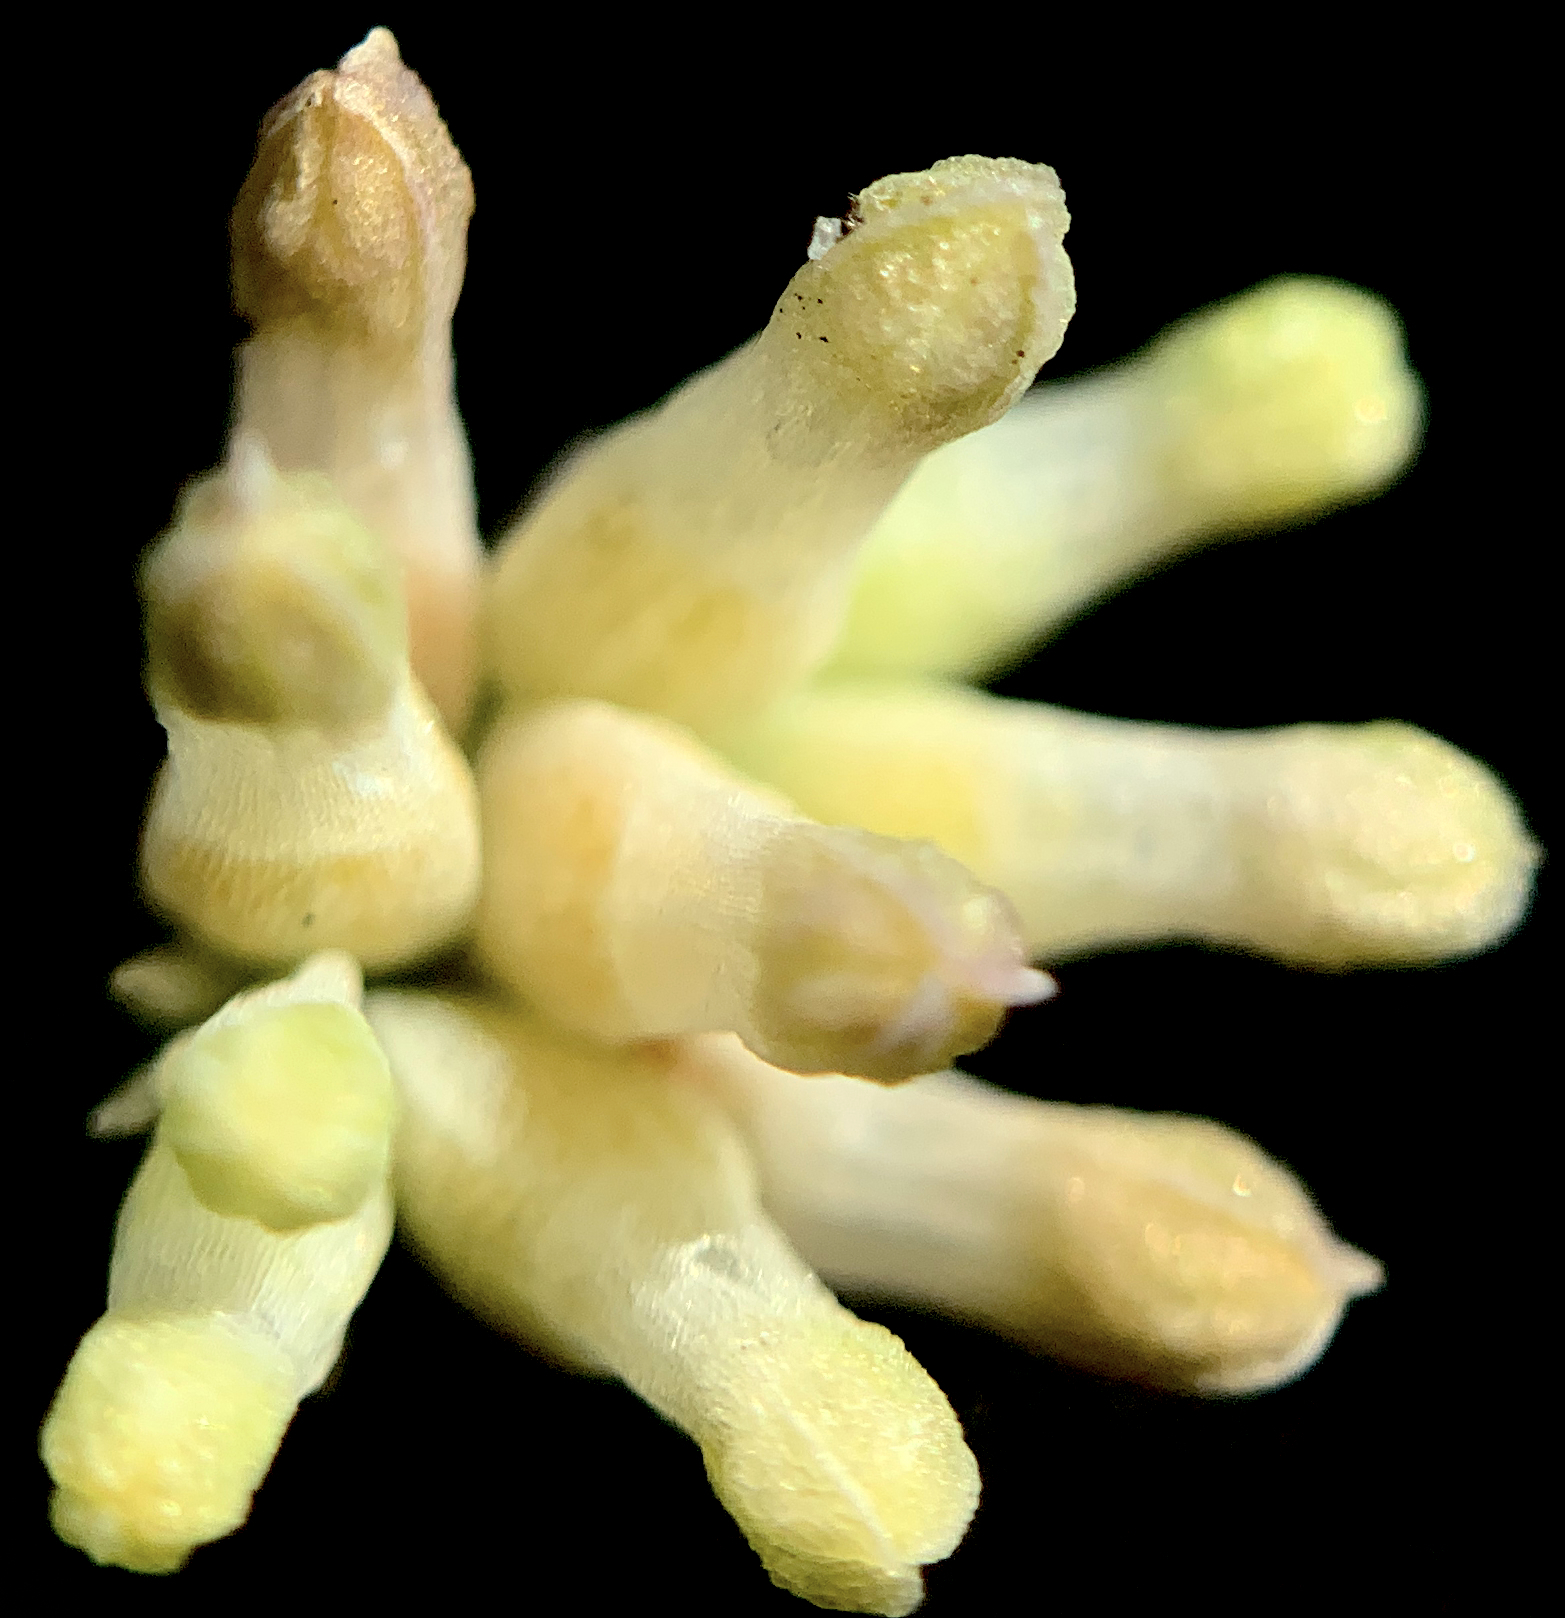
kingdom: Plantae
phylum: Tracheophyta
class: Liliopsida
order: Dioscoreales
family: Burmanniaceae
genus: Burmannia
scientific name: Burmannia capitata
